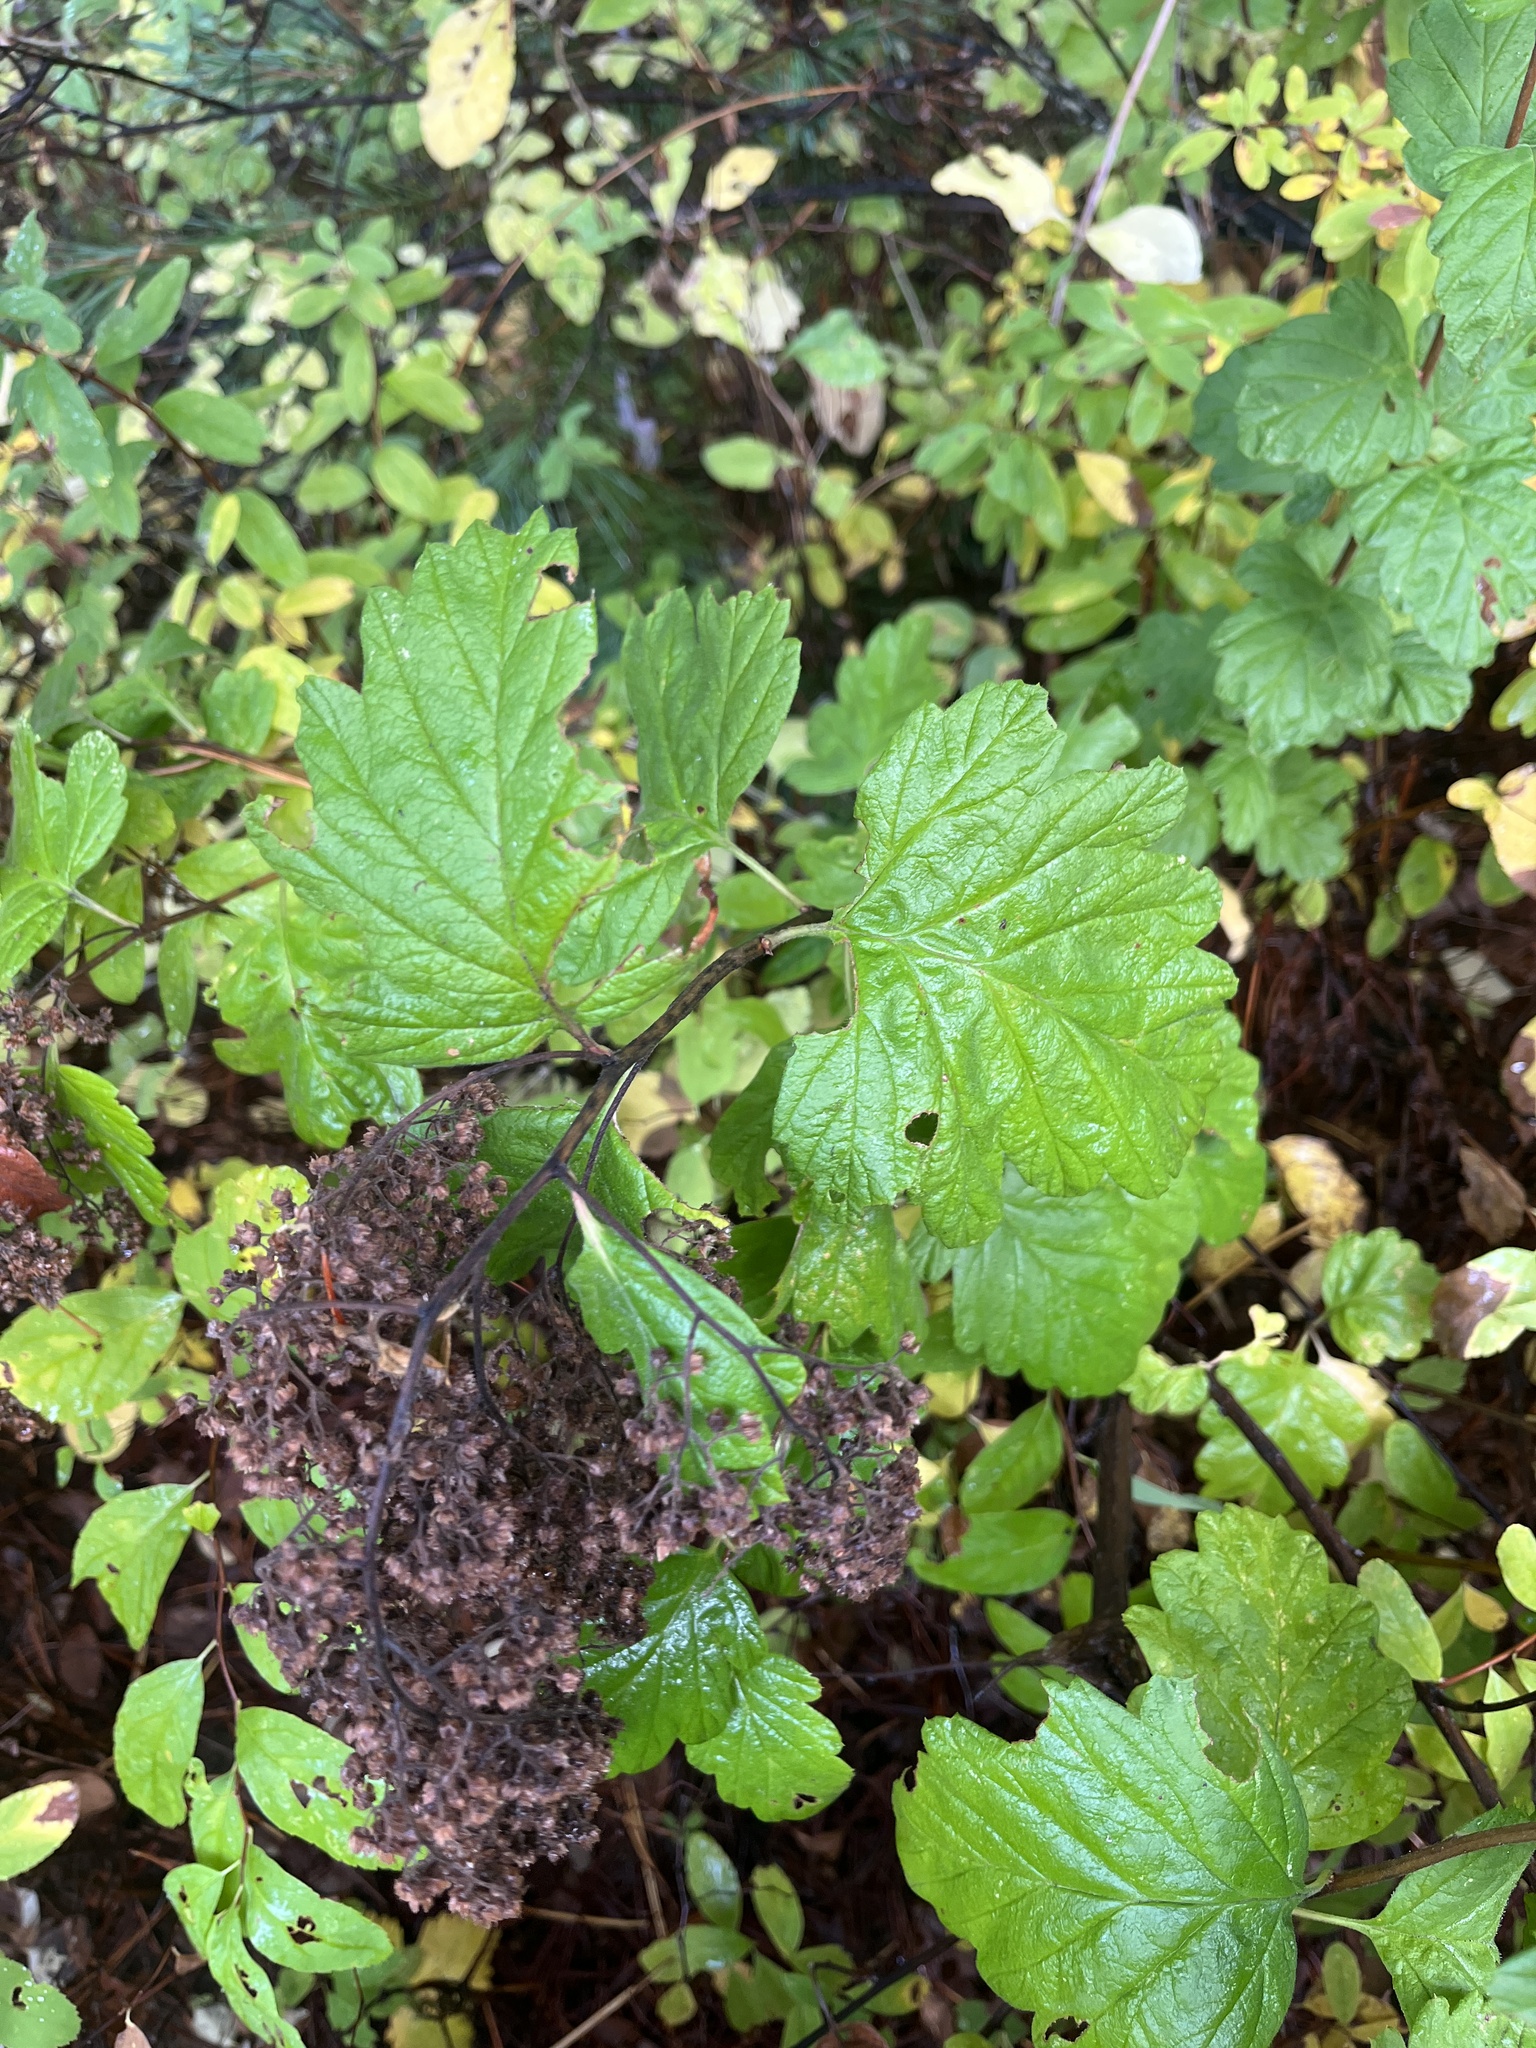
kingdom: Plantae
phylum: Tracheophyta
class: Magnoliopsida
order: Rosales
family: Rosaceae
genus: Holodiscus
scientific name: Holodiscus discolor
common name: Oceanspray
